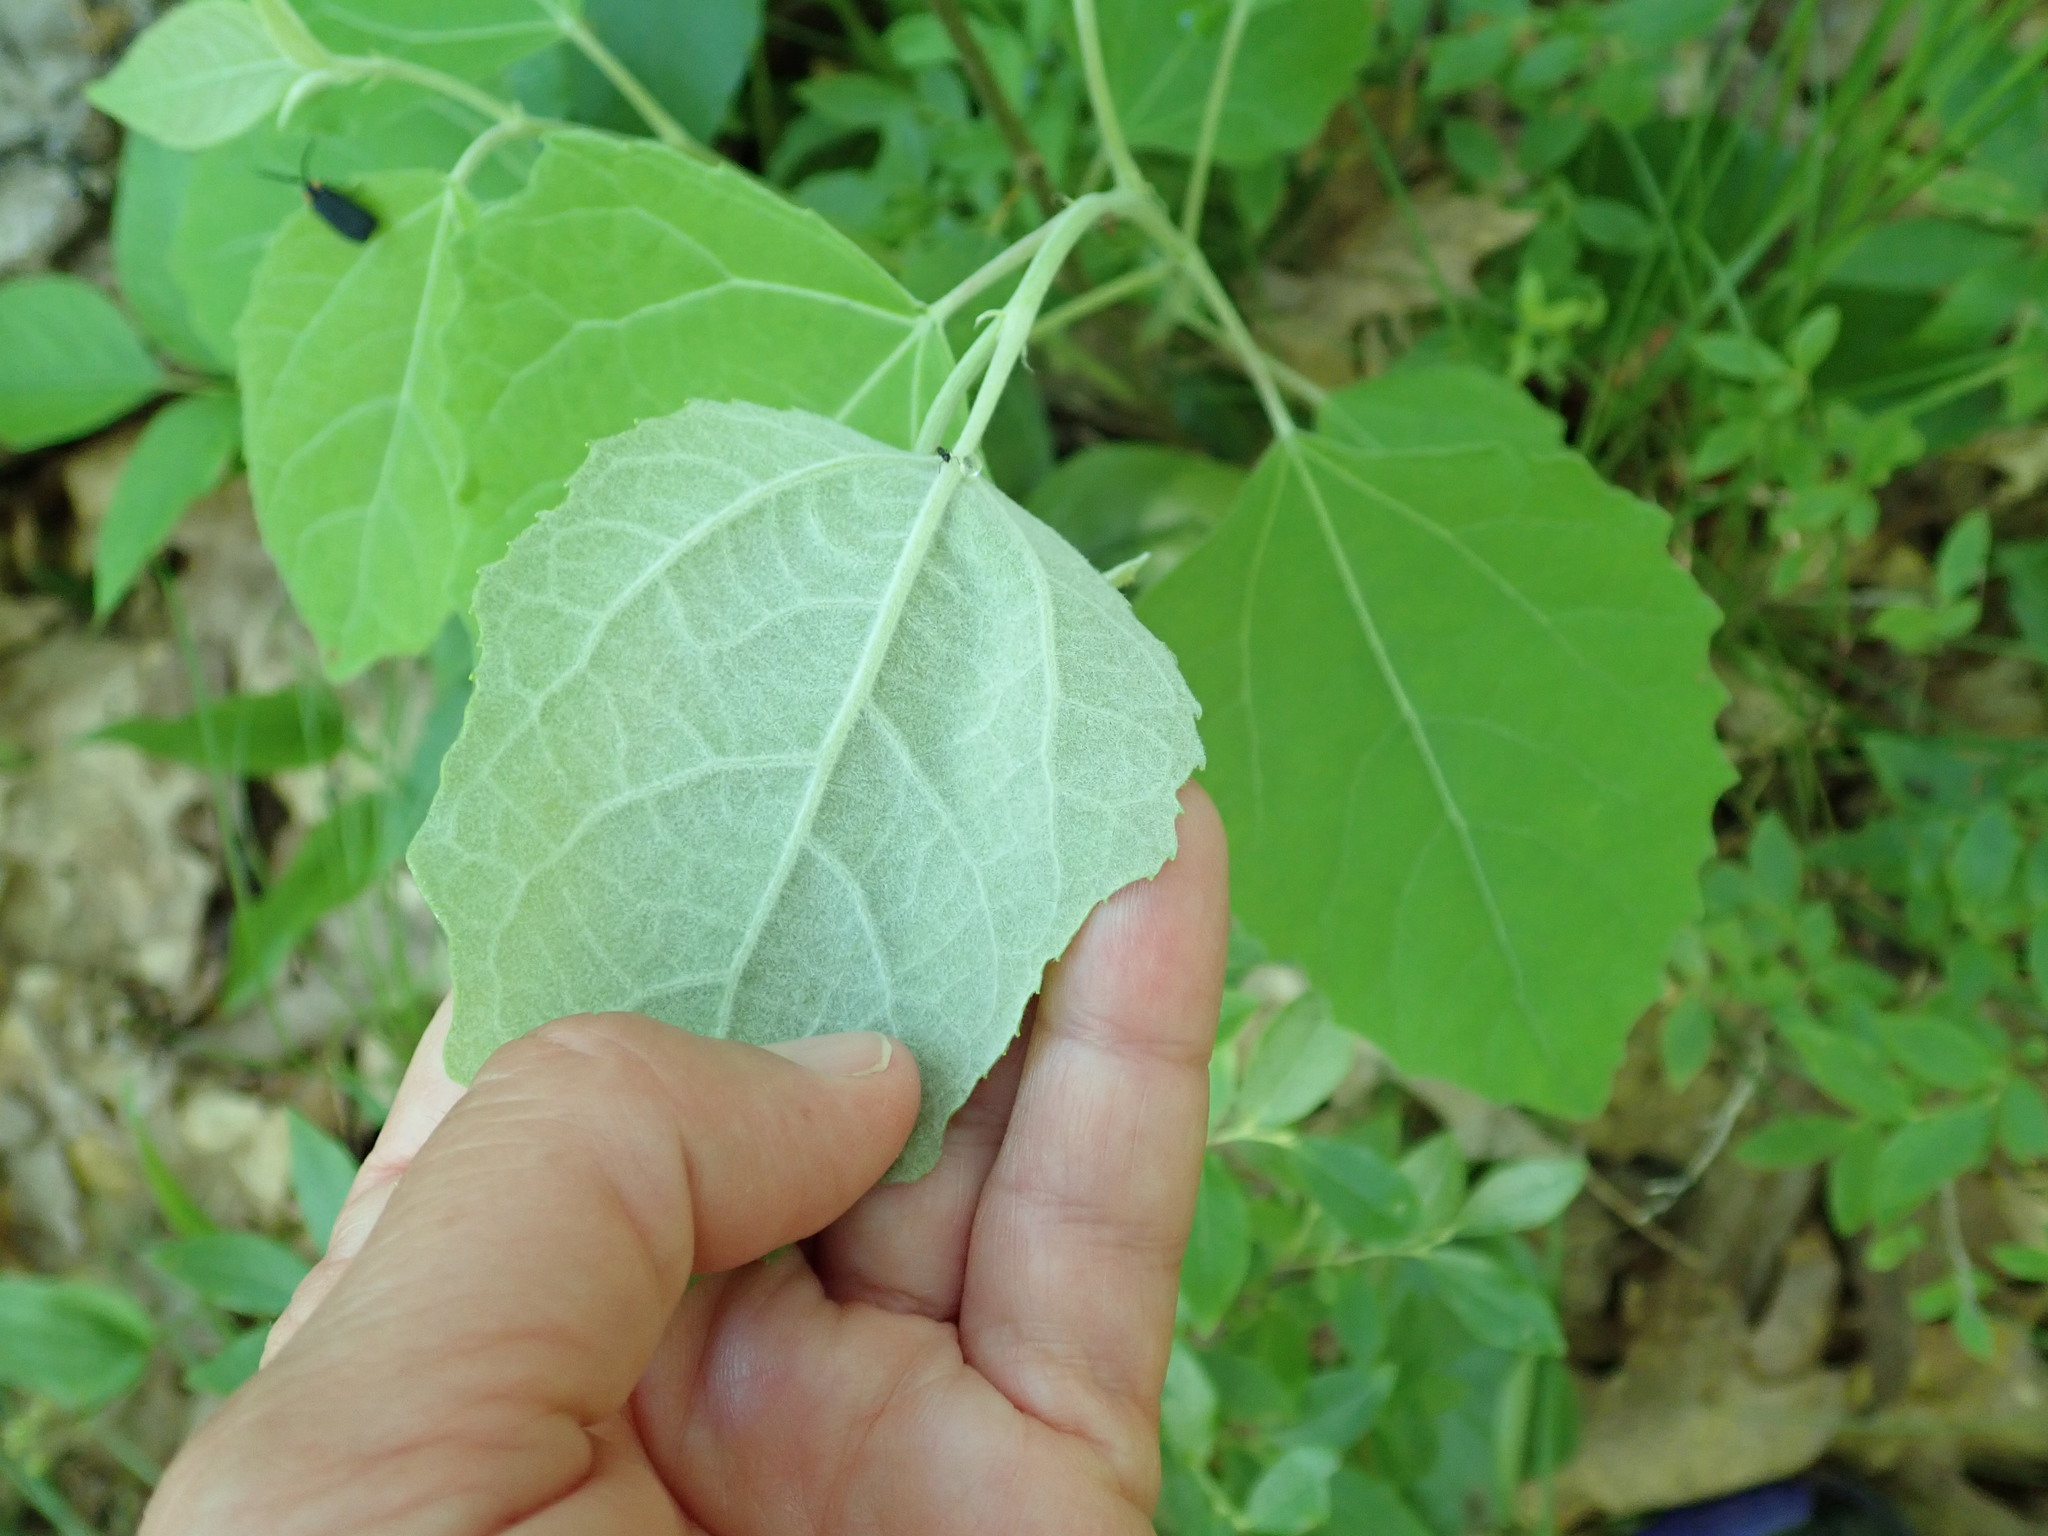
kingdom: Plantae
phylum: Tracheophyta
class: Magnoliopsida
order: Malpighiales
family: Salicaceae
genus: Populus
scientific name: Populus alba
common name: White poplar
